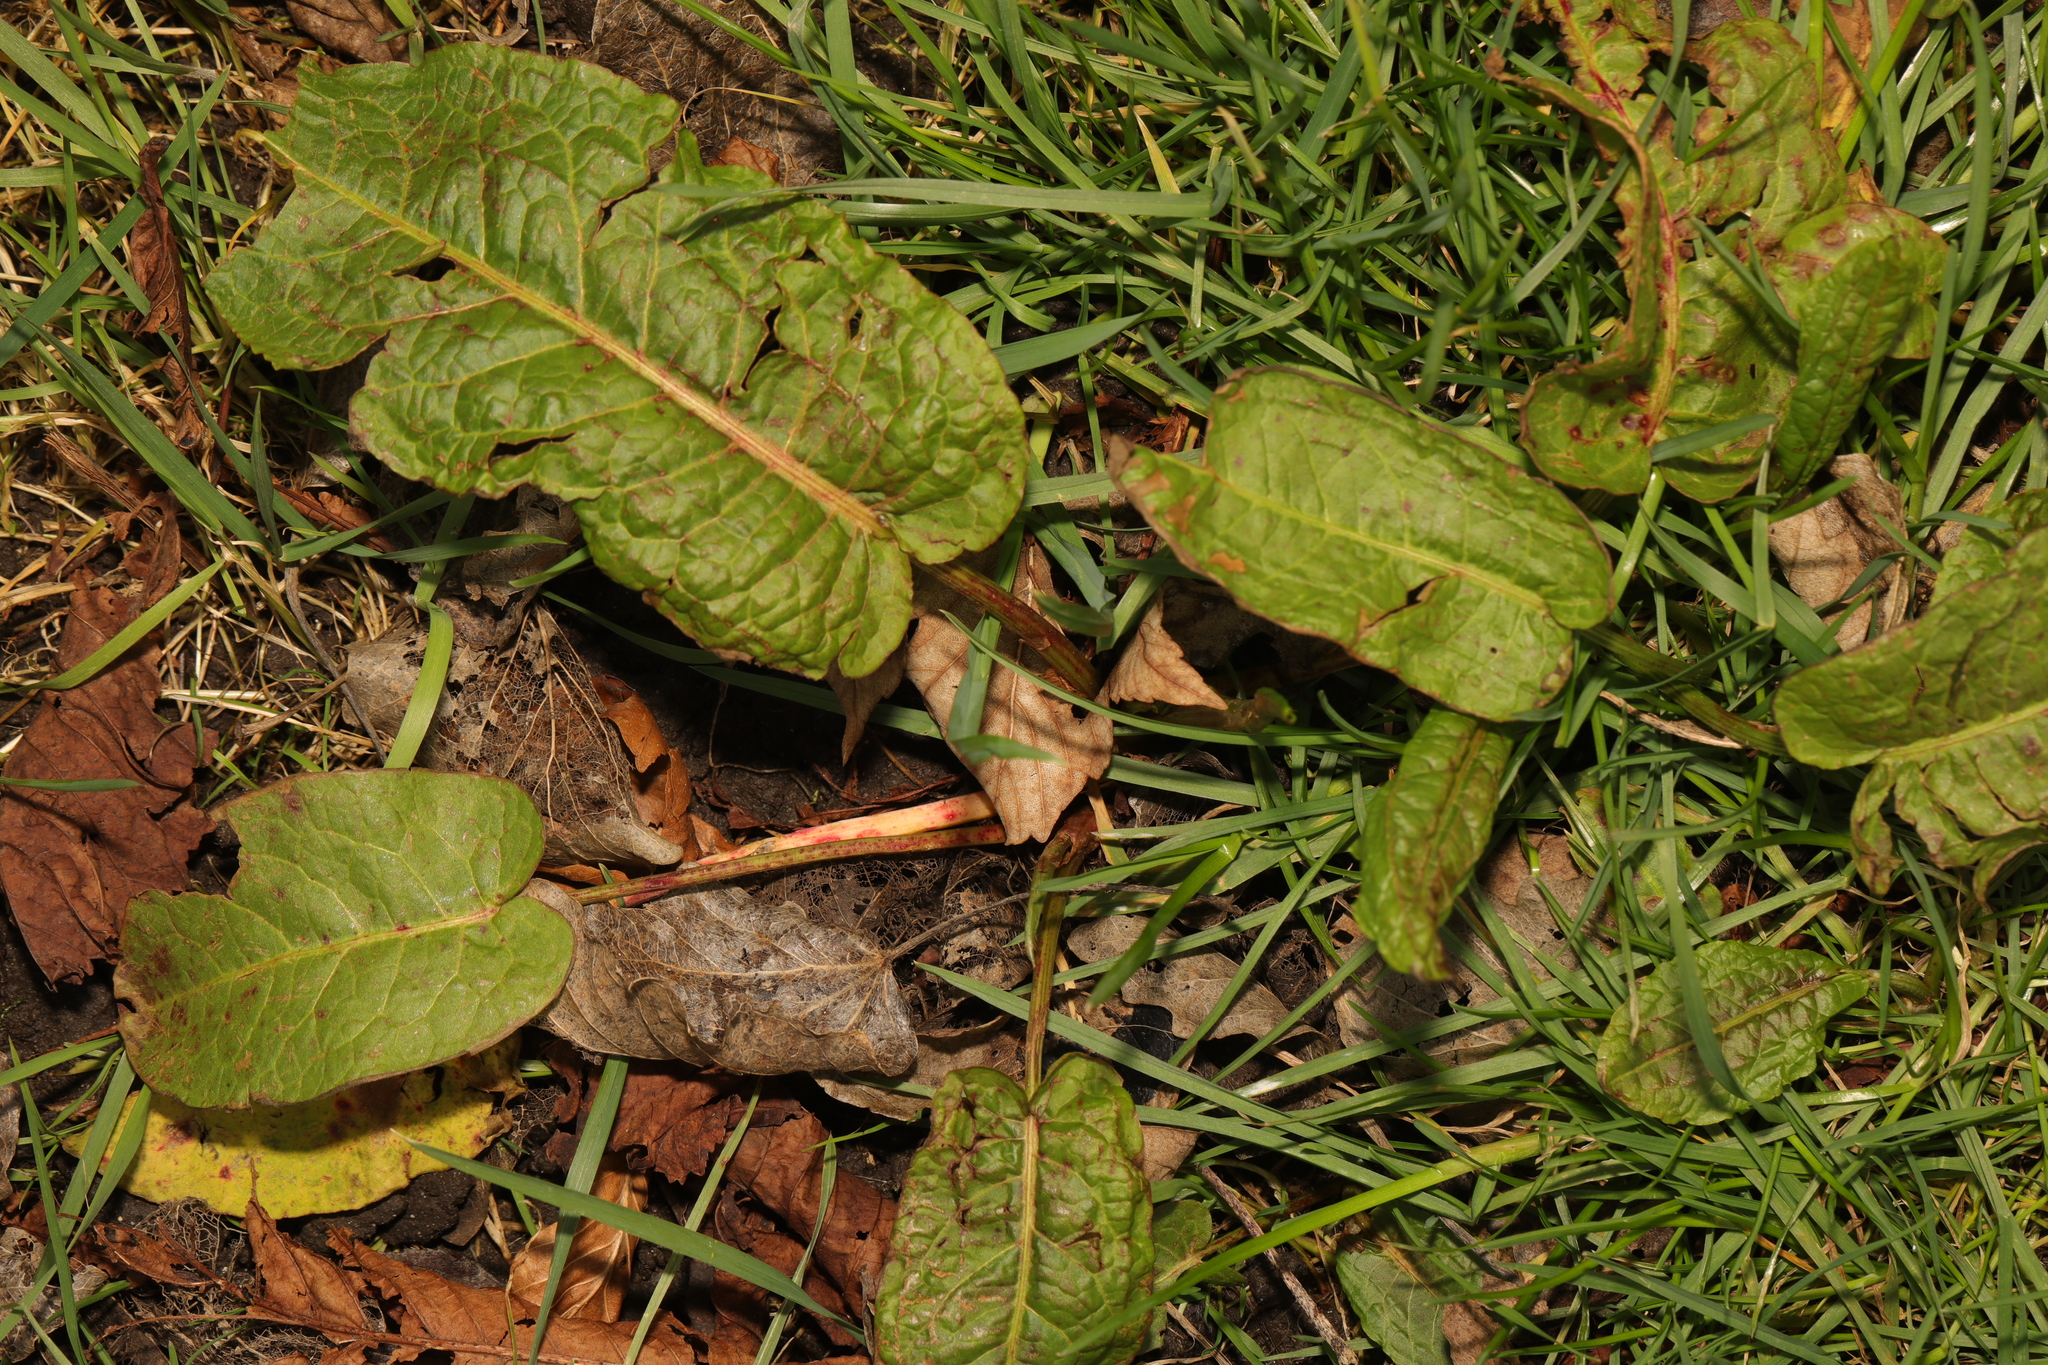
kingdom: Plantae
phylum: Tracheophyta
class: Magnoliopsida
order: Caryophyllales
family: Polygonaceae
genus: Rumex
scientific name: Rumex obtusifolius
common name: Bitter dock
